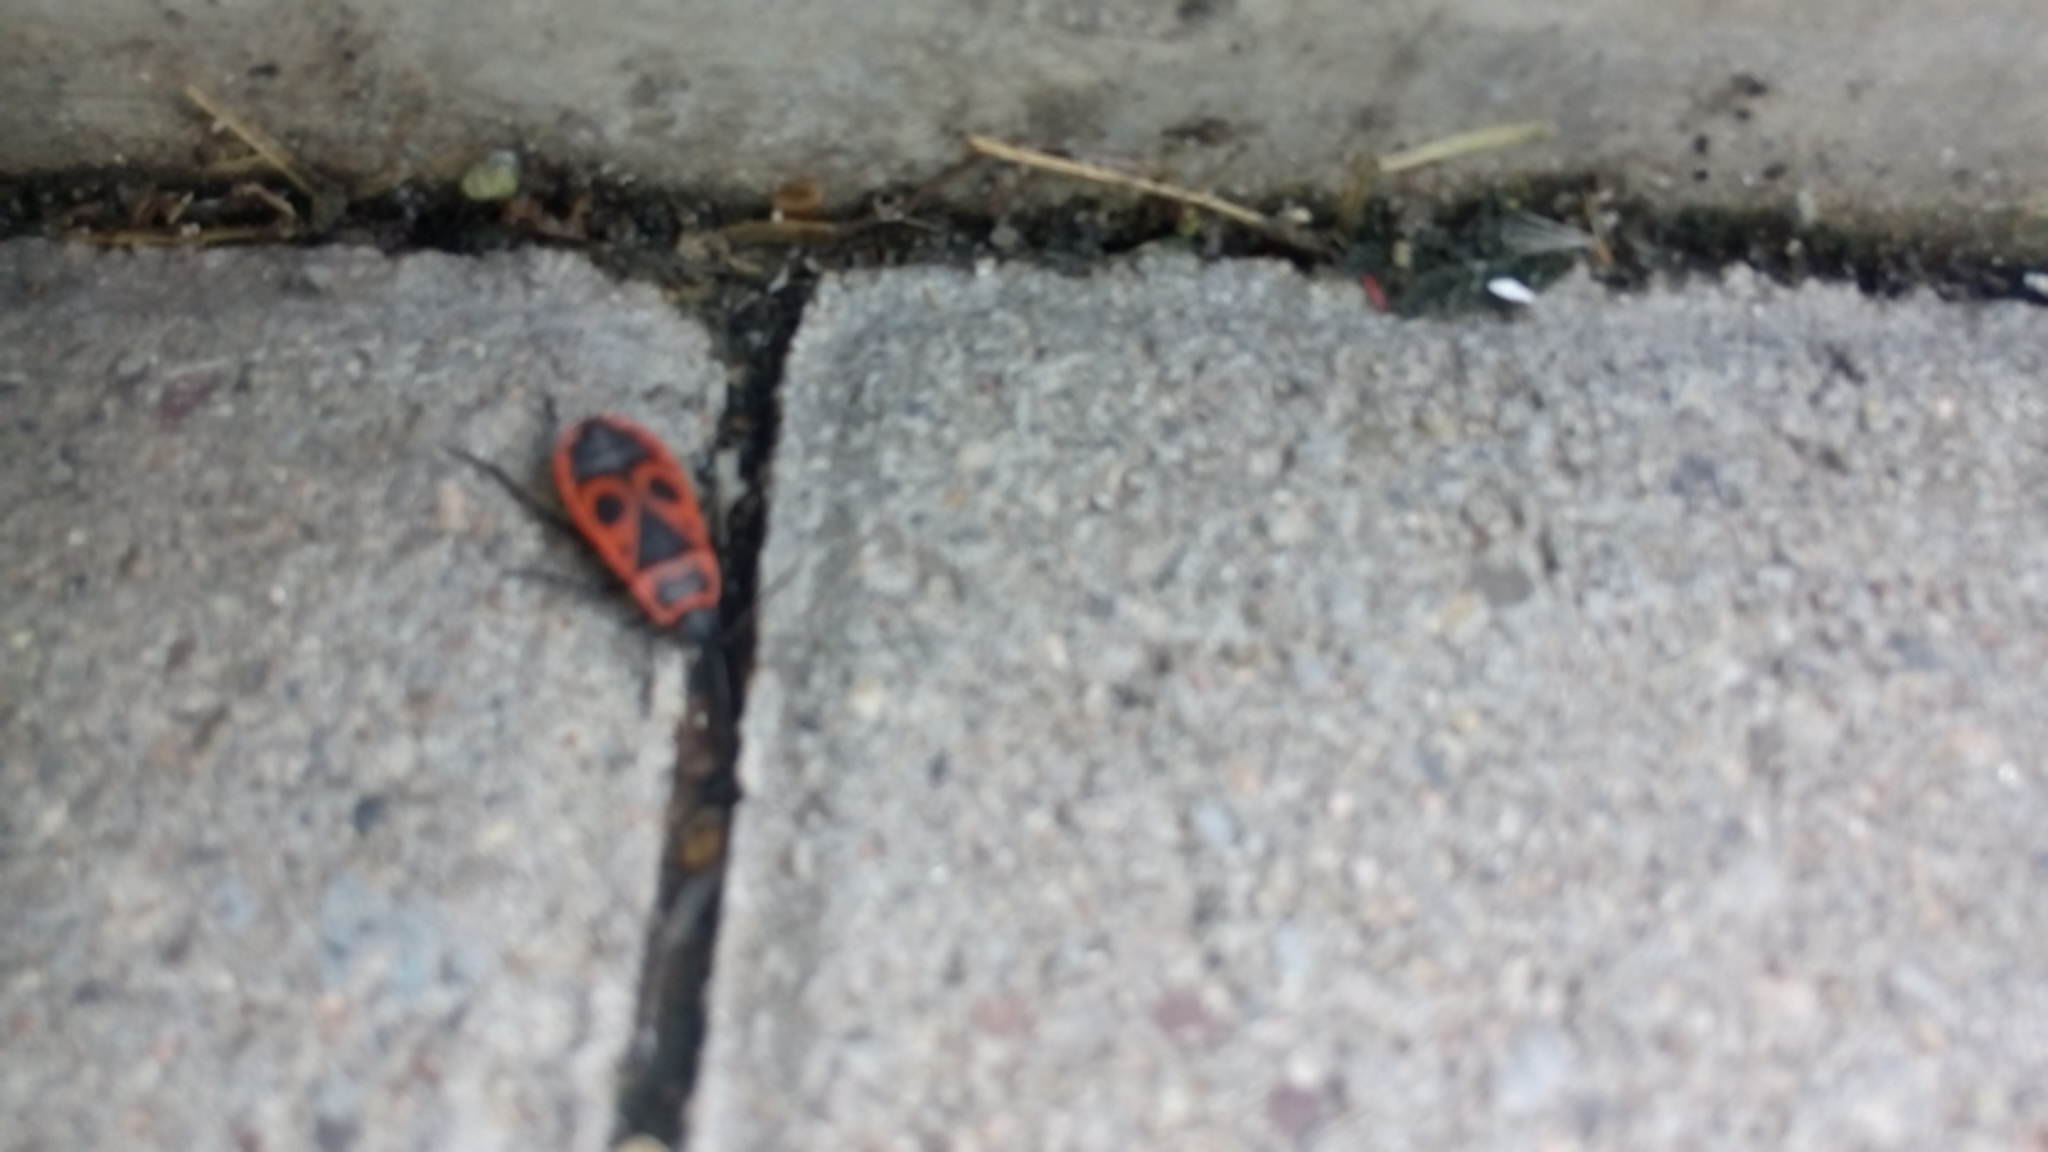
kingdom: Animalia
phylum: Arthropoda
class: Insecta
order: Hemiptera
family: Pyrrhocoridae
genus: Pyrrhocoris
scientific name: Pyrrhocoris apterus
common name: Firebug
